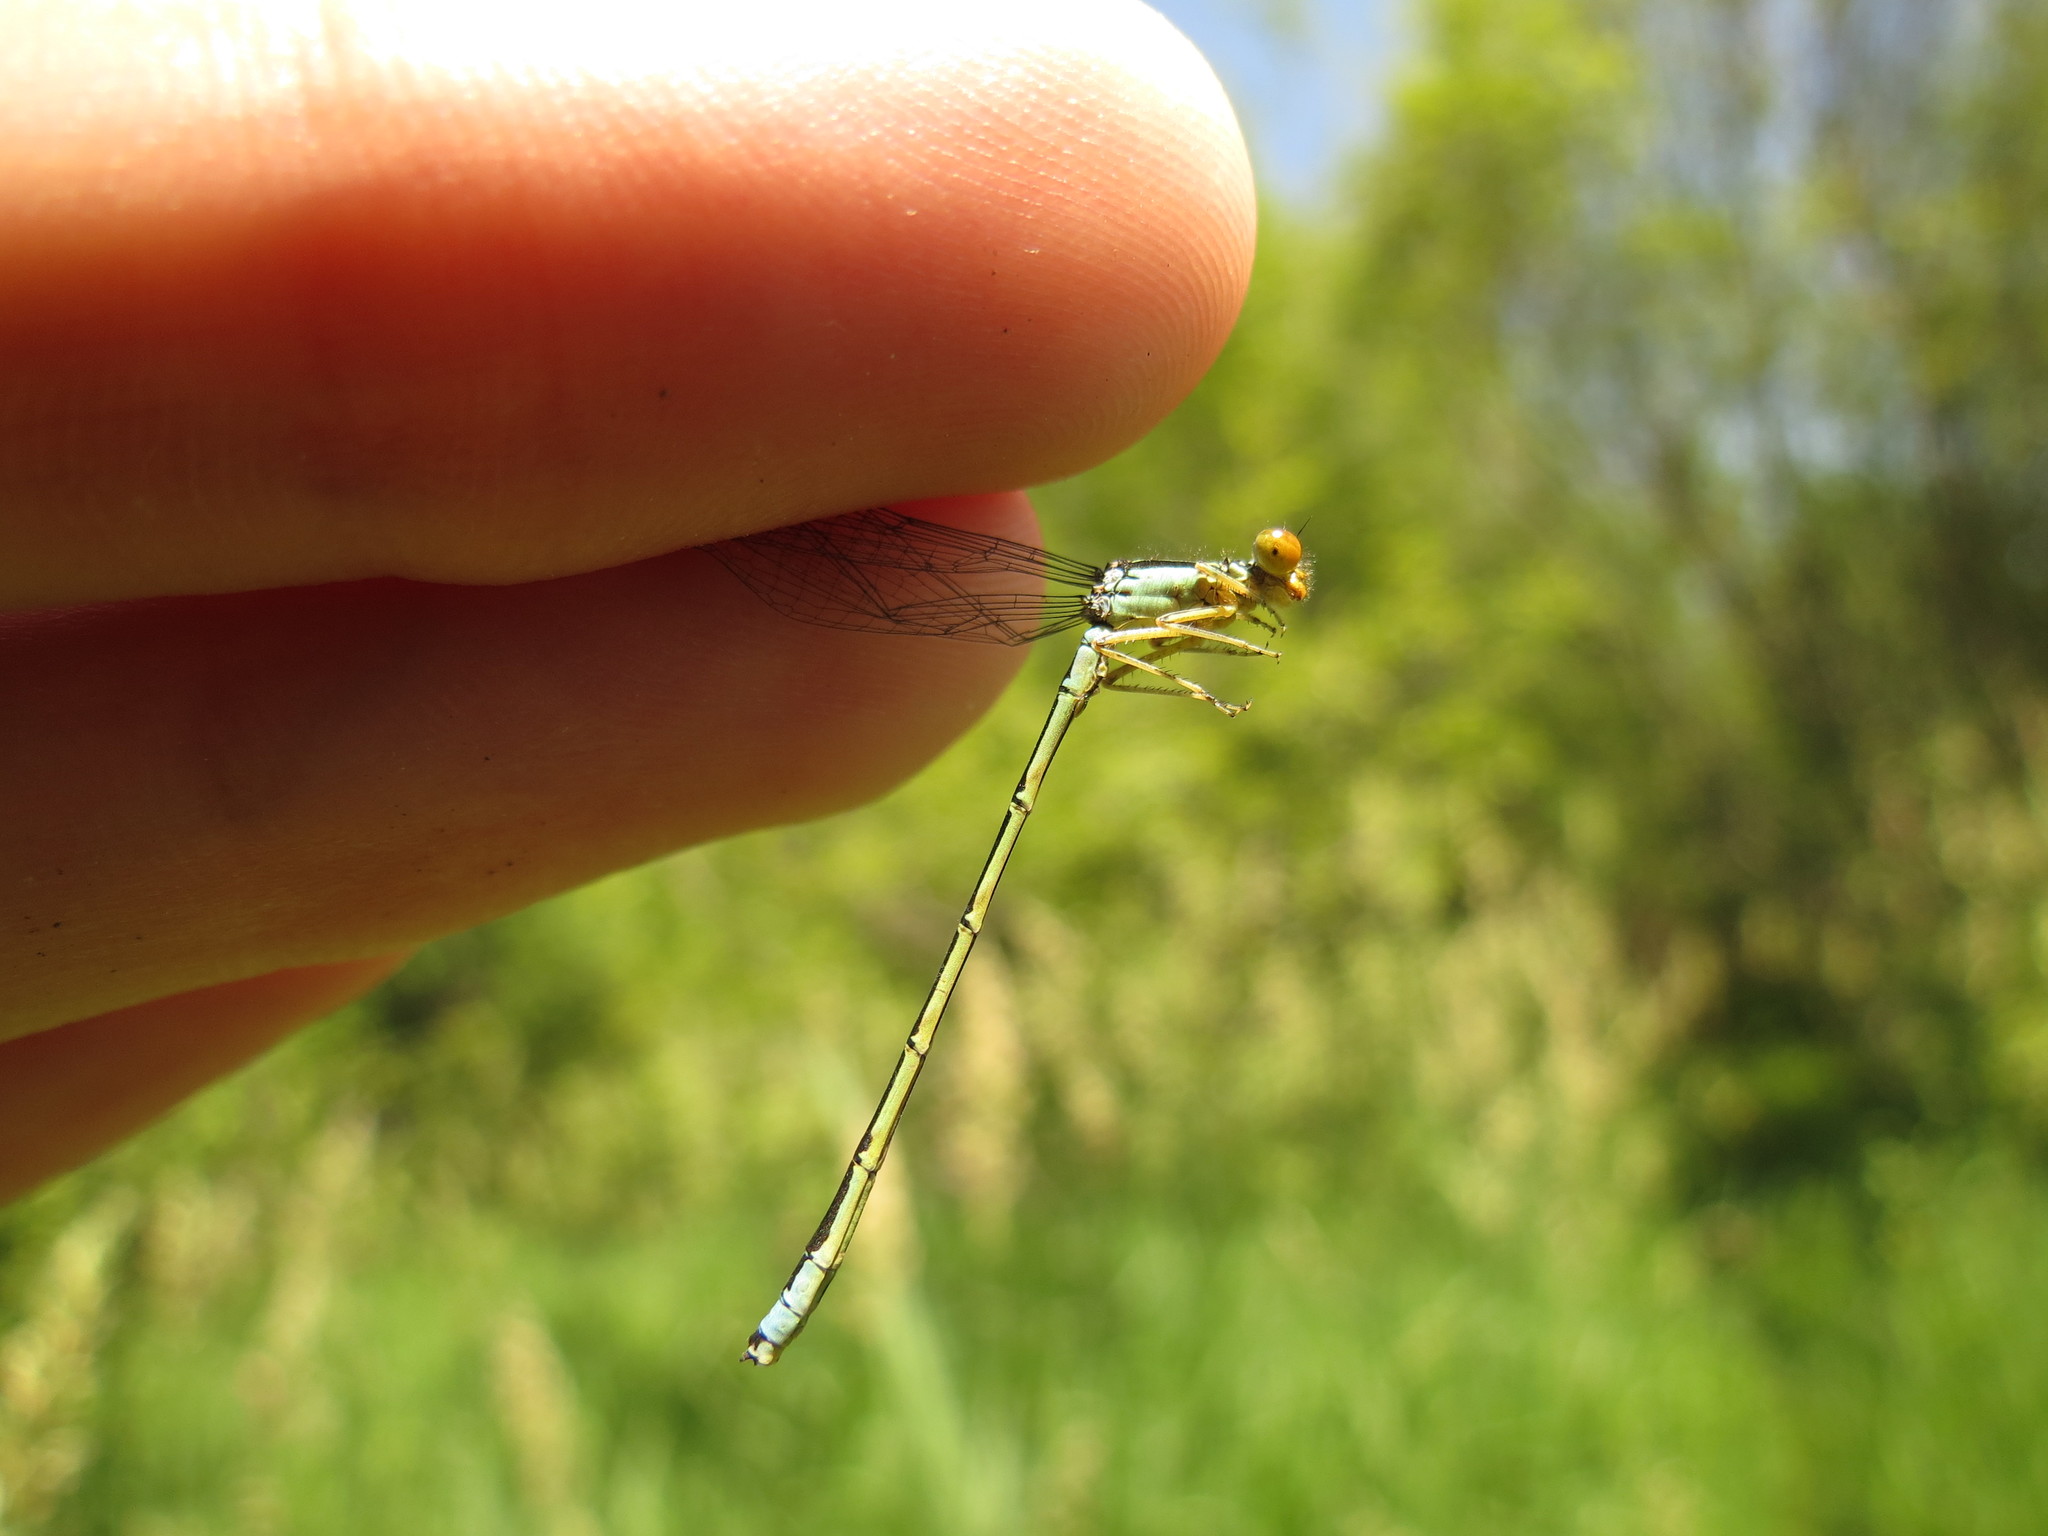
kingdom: Animalia
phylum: Arthropoda
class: Insecta
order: Odonata
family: Coenagrionidae
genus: Enallagma
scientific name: Enallagma antennatum
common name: Rainbow bluet
